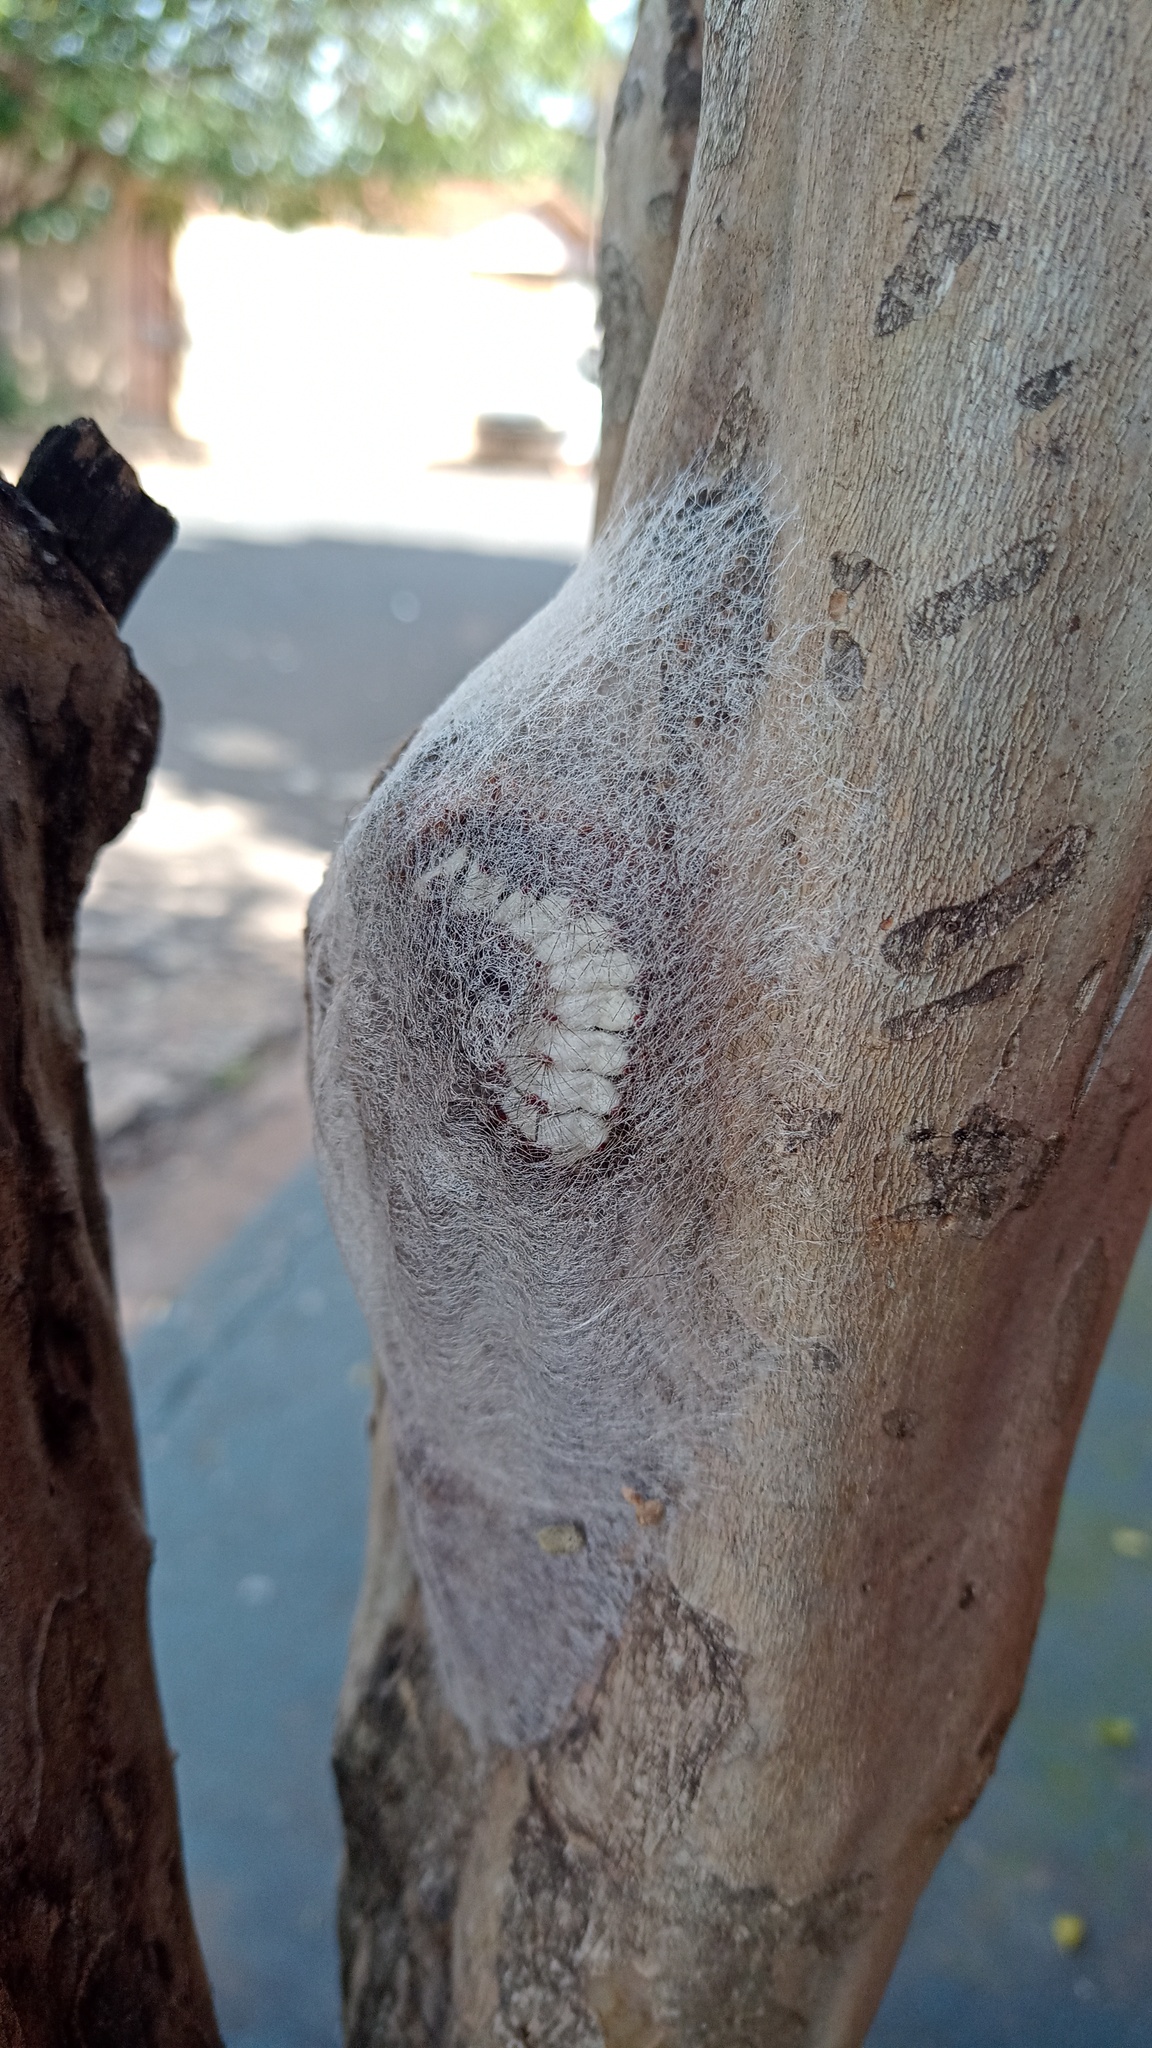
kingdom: Animalia
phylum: Arthropoda
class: Insecta
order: Lepidoptera
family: Megalopygidae
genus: Megalopyge
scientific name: Megalopyge lanata
